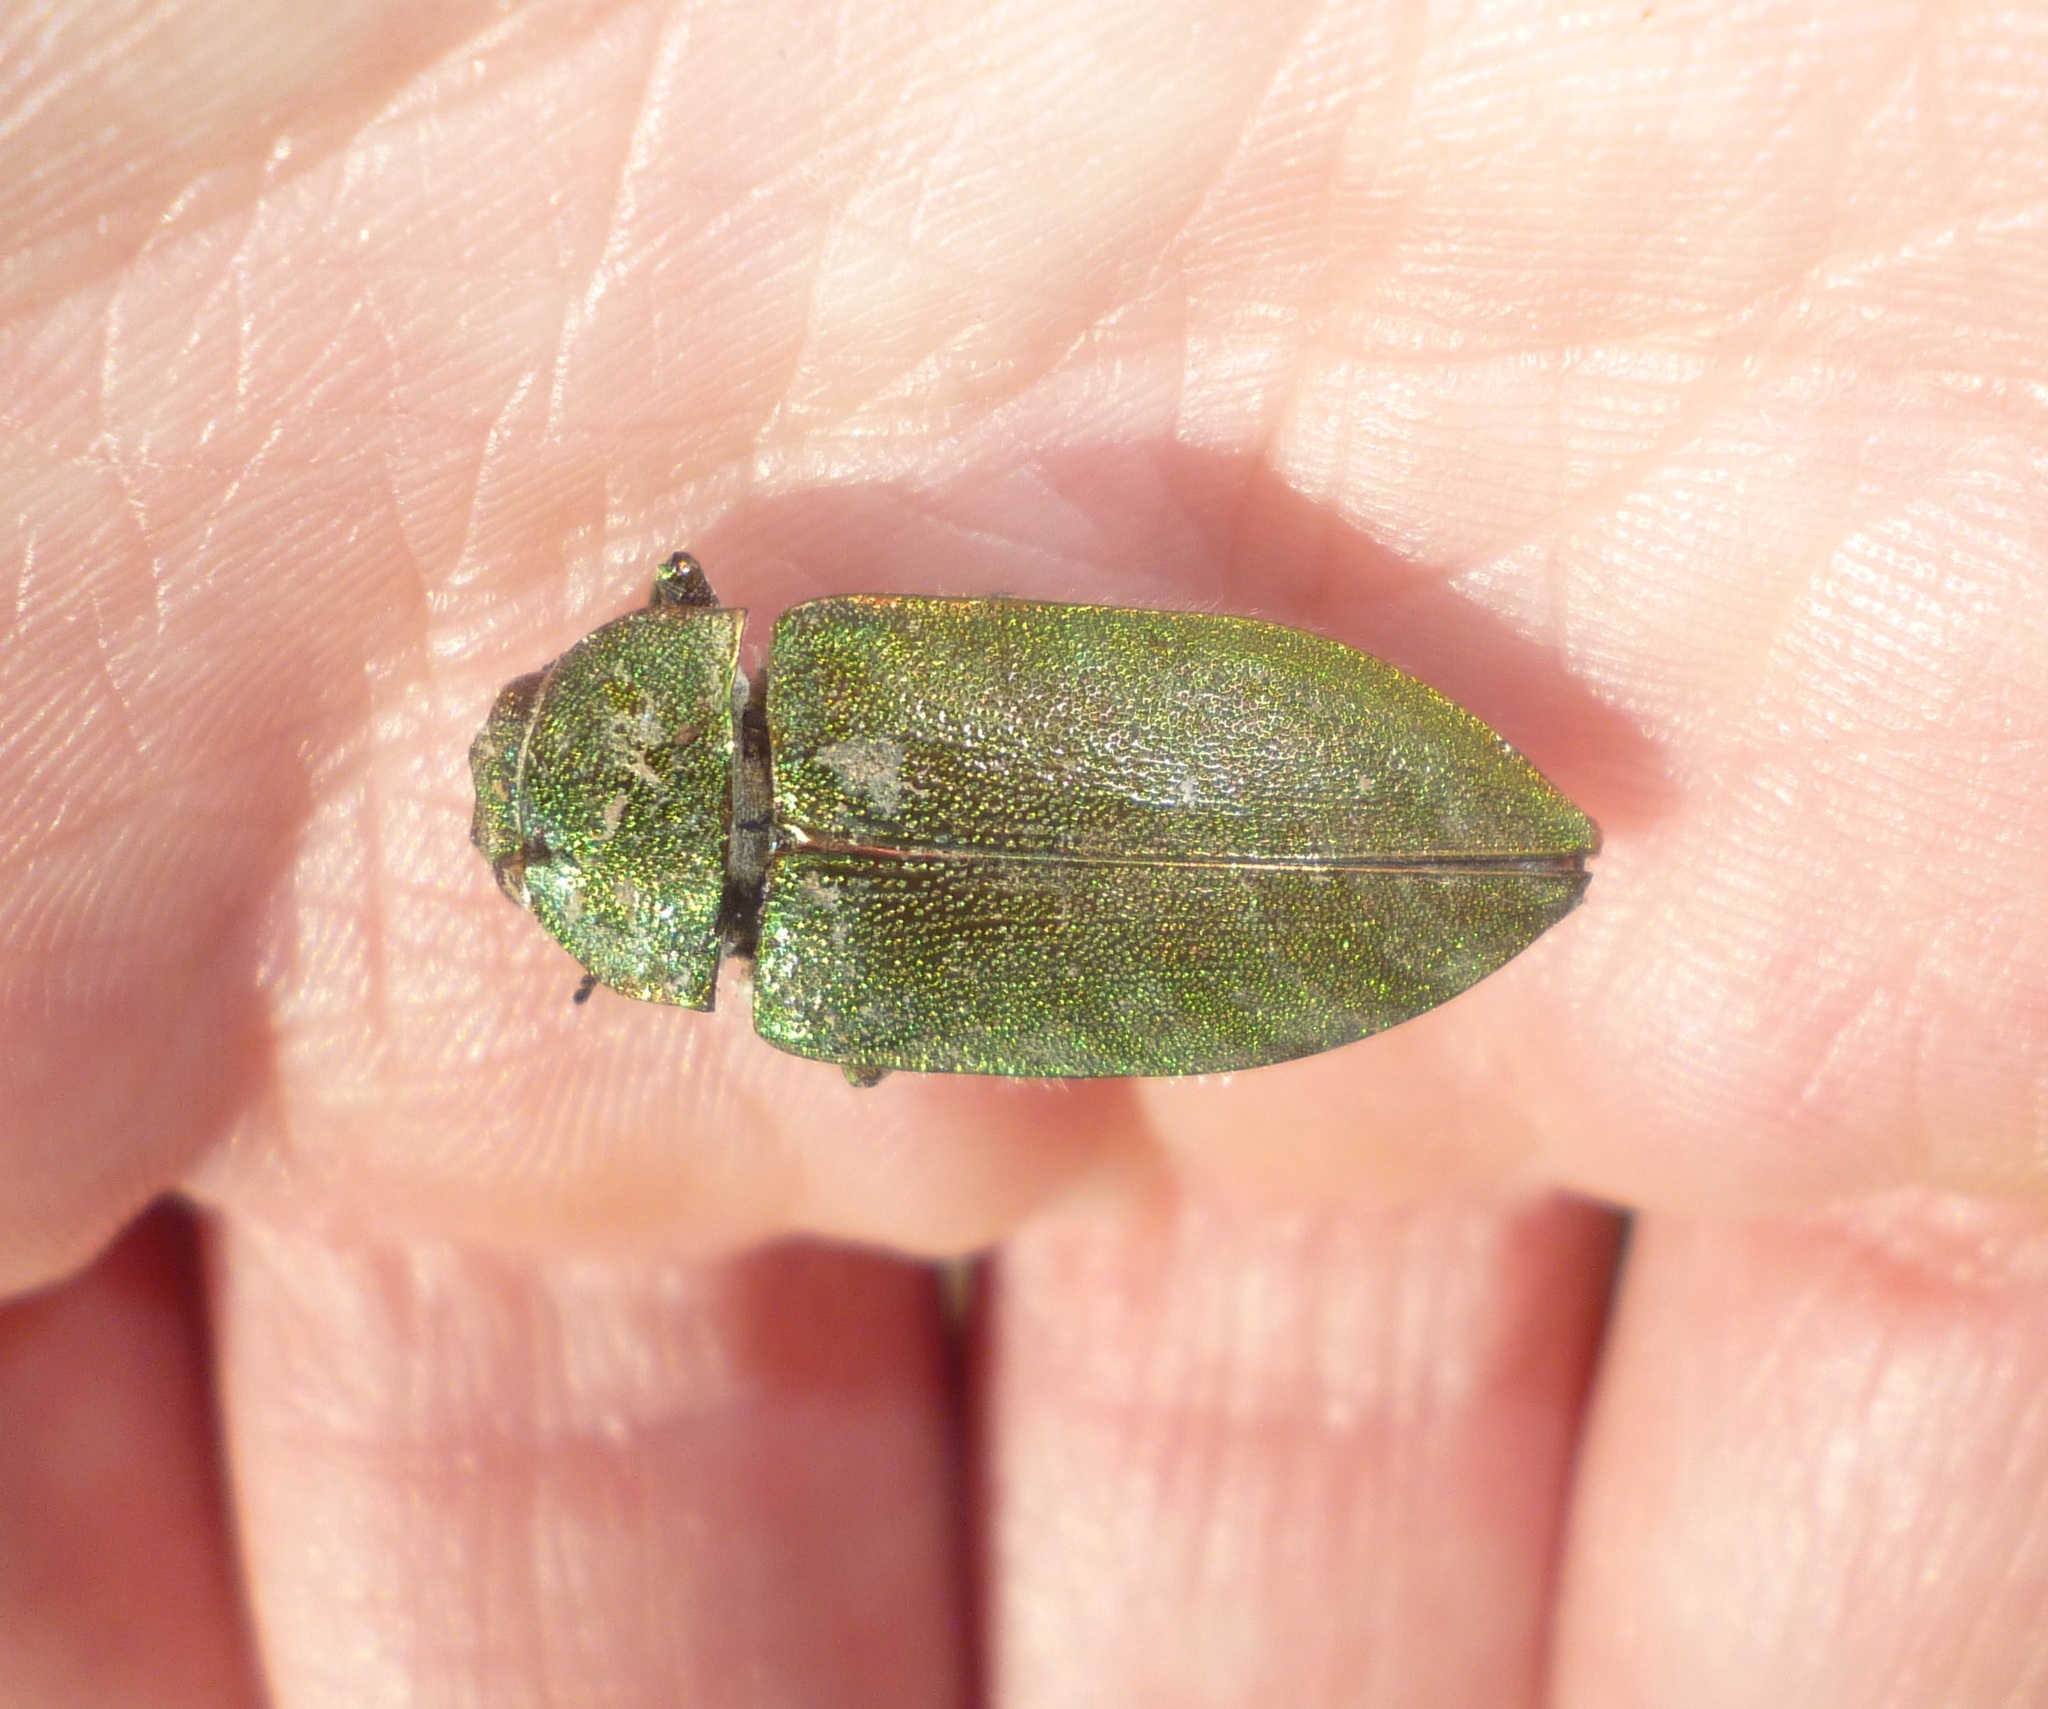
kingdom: Animalia
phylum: Arthropoda
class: Insecta
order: Coleoptera
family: Buprestidae
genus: Perotis
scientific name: Perotis chloranus
